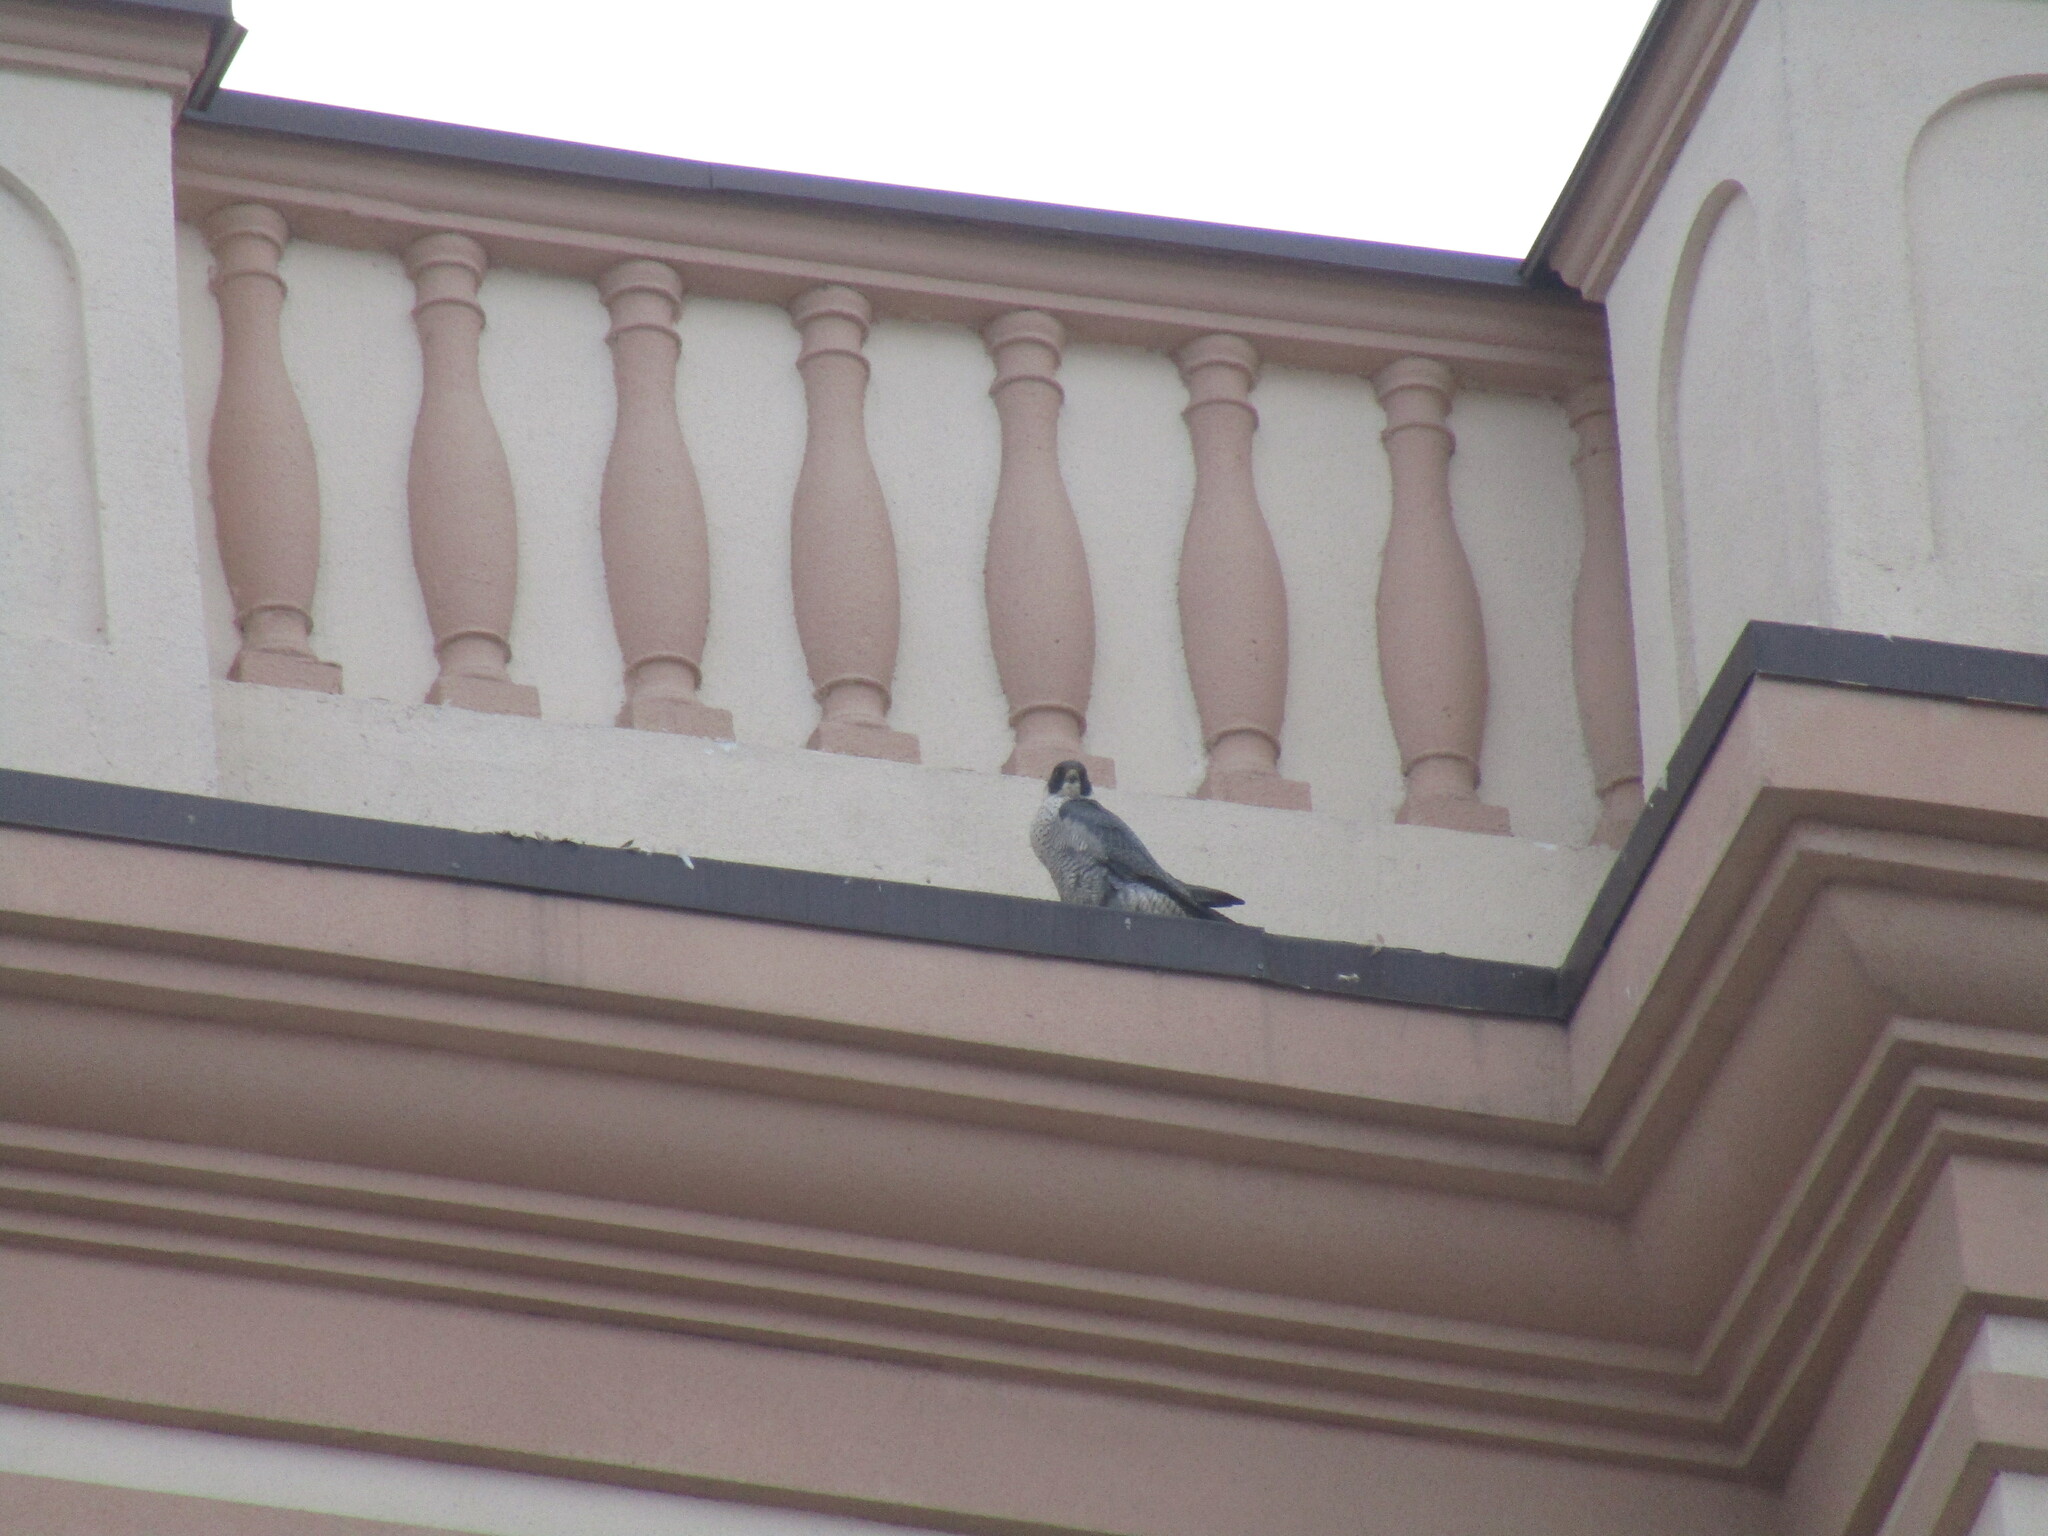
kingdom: Animalia
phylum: Chordata
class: Aves
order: Falconiformes
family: Falconidae
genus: Falco
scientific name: Falco peregrinus
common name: Peregrine falcon
